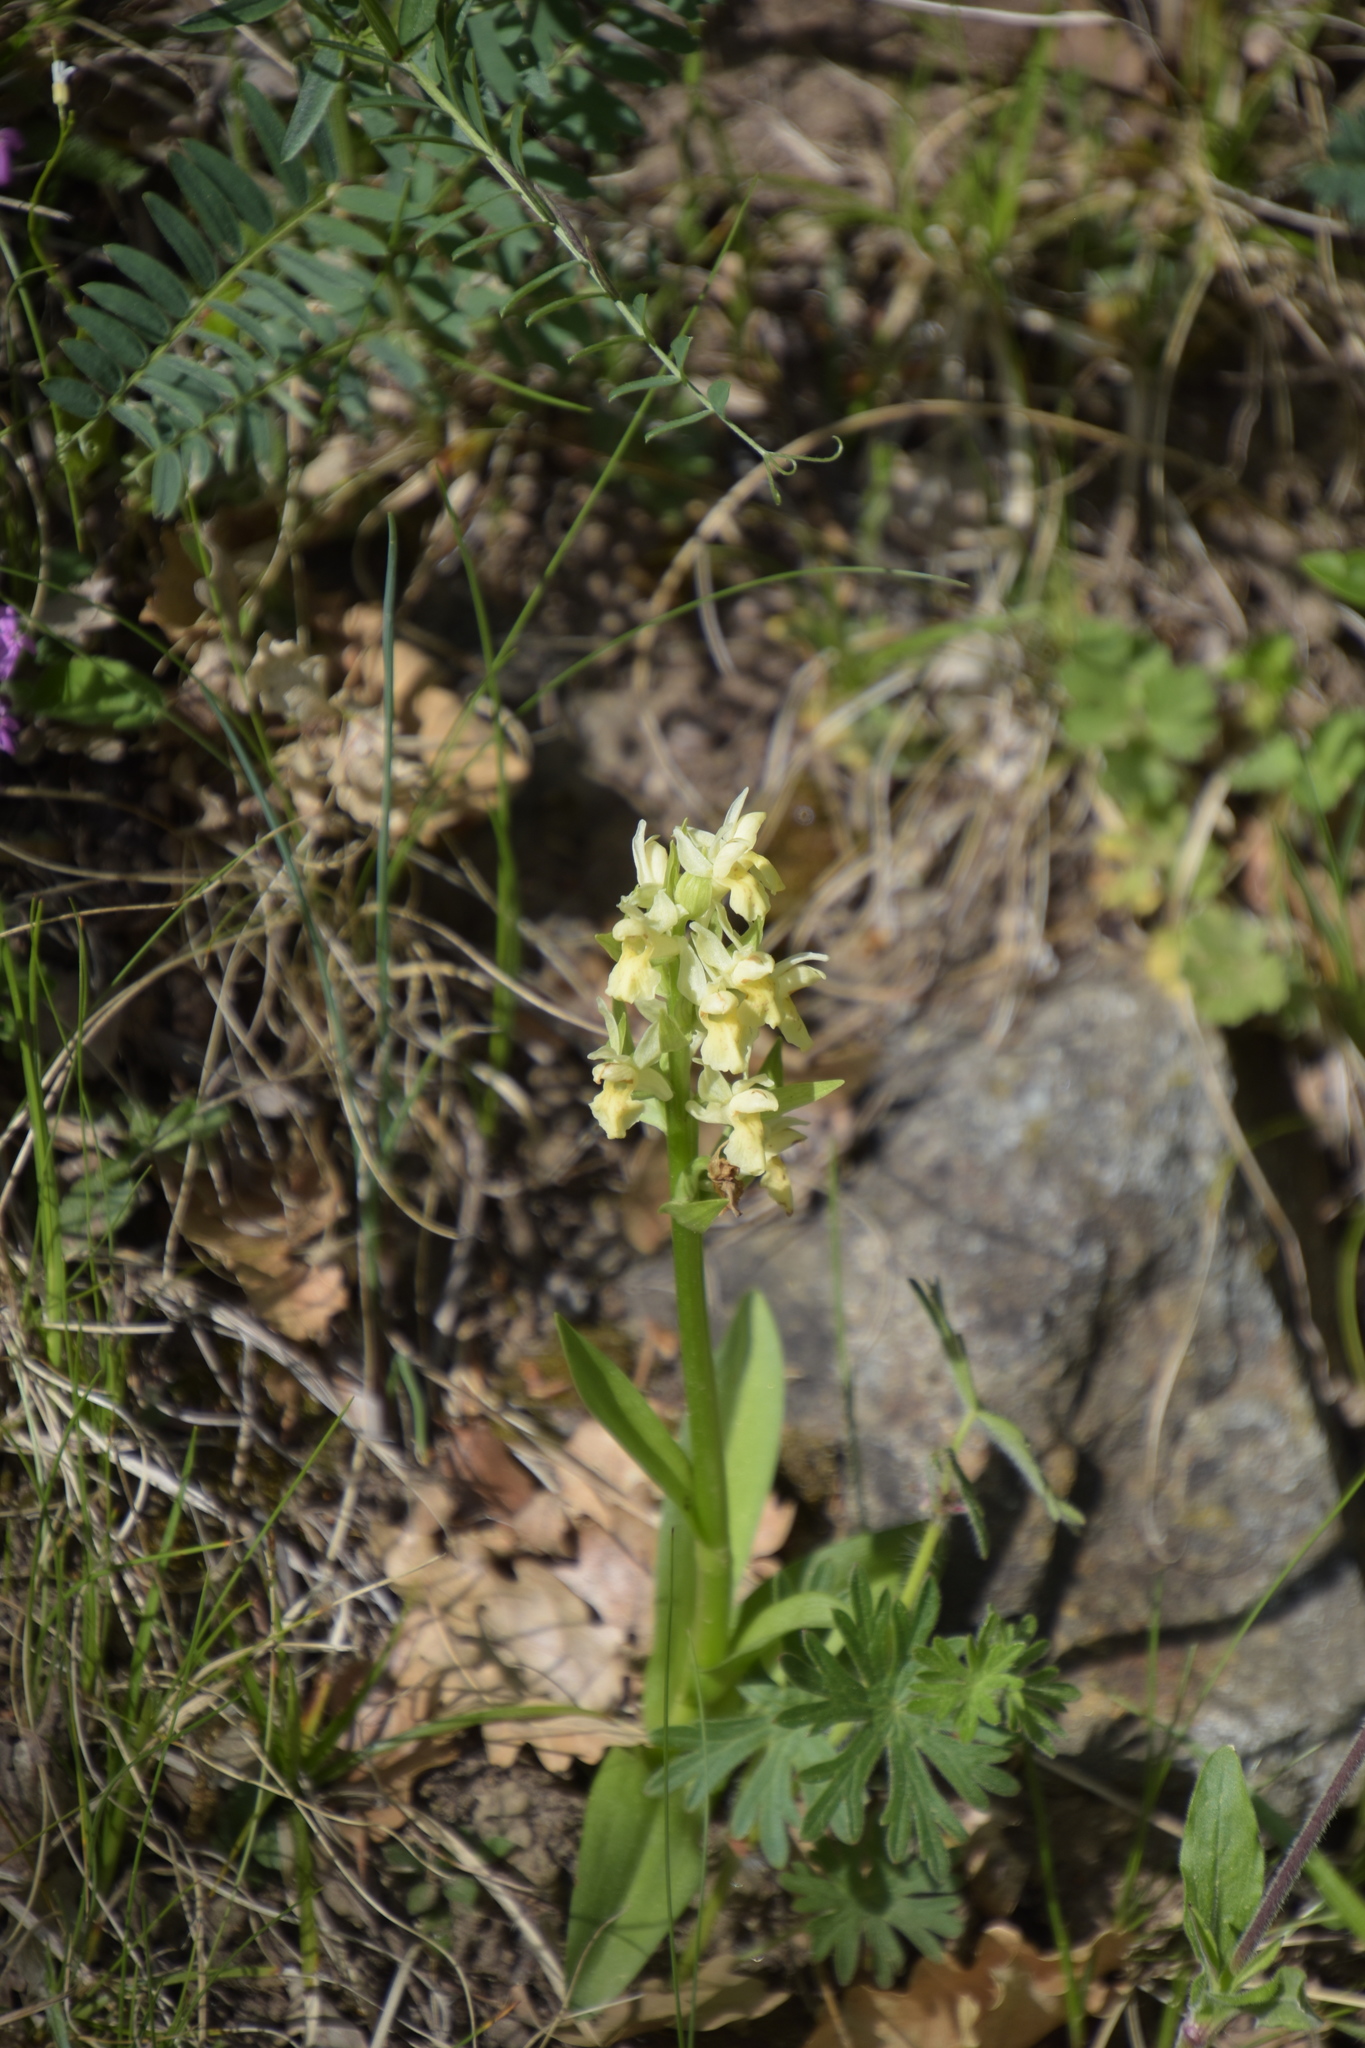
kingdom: Plantae
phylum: Tracheophyta
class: Liliopsida
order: Asparagales
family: Orchidaceae
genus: Dactylorhiza
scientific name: Dactylorhiza sambucina
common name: Elder-flowered orchid
